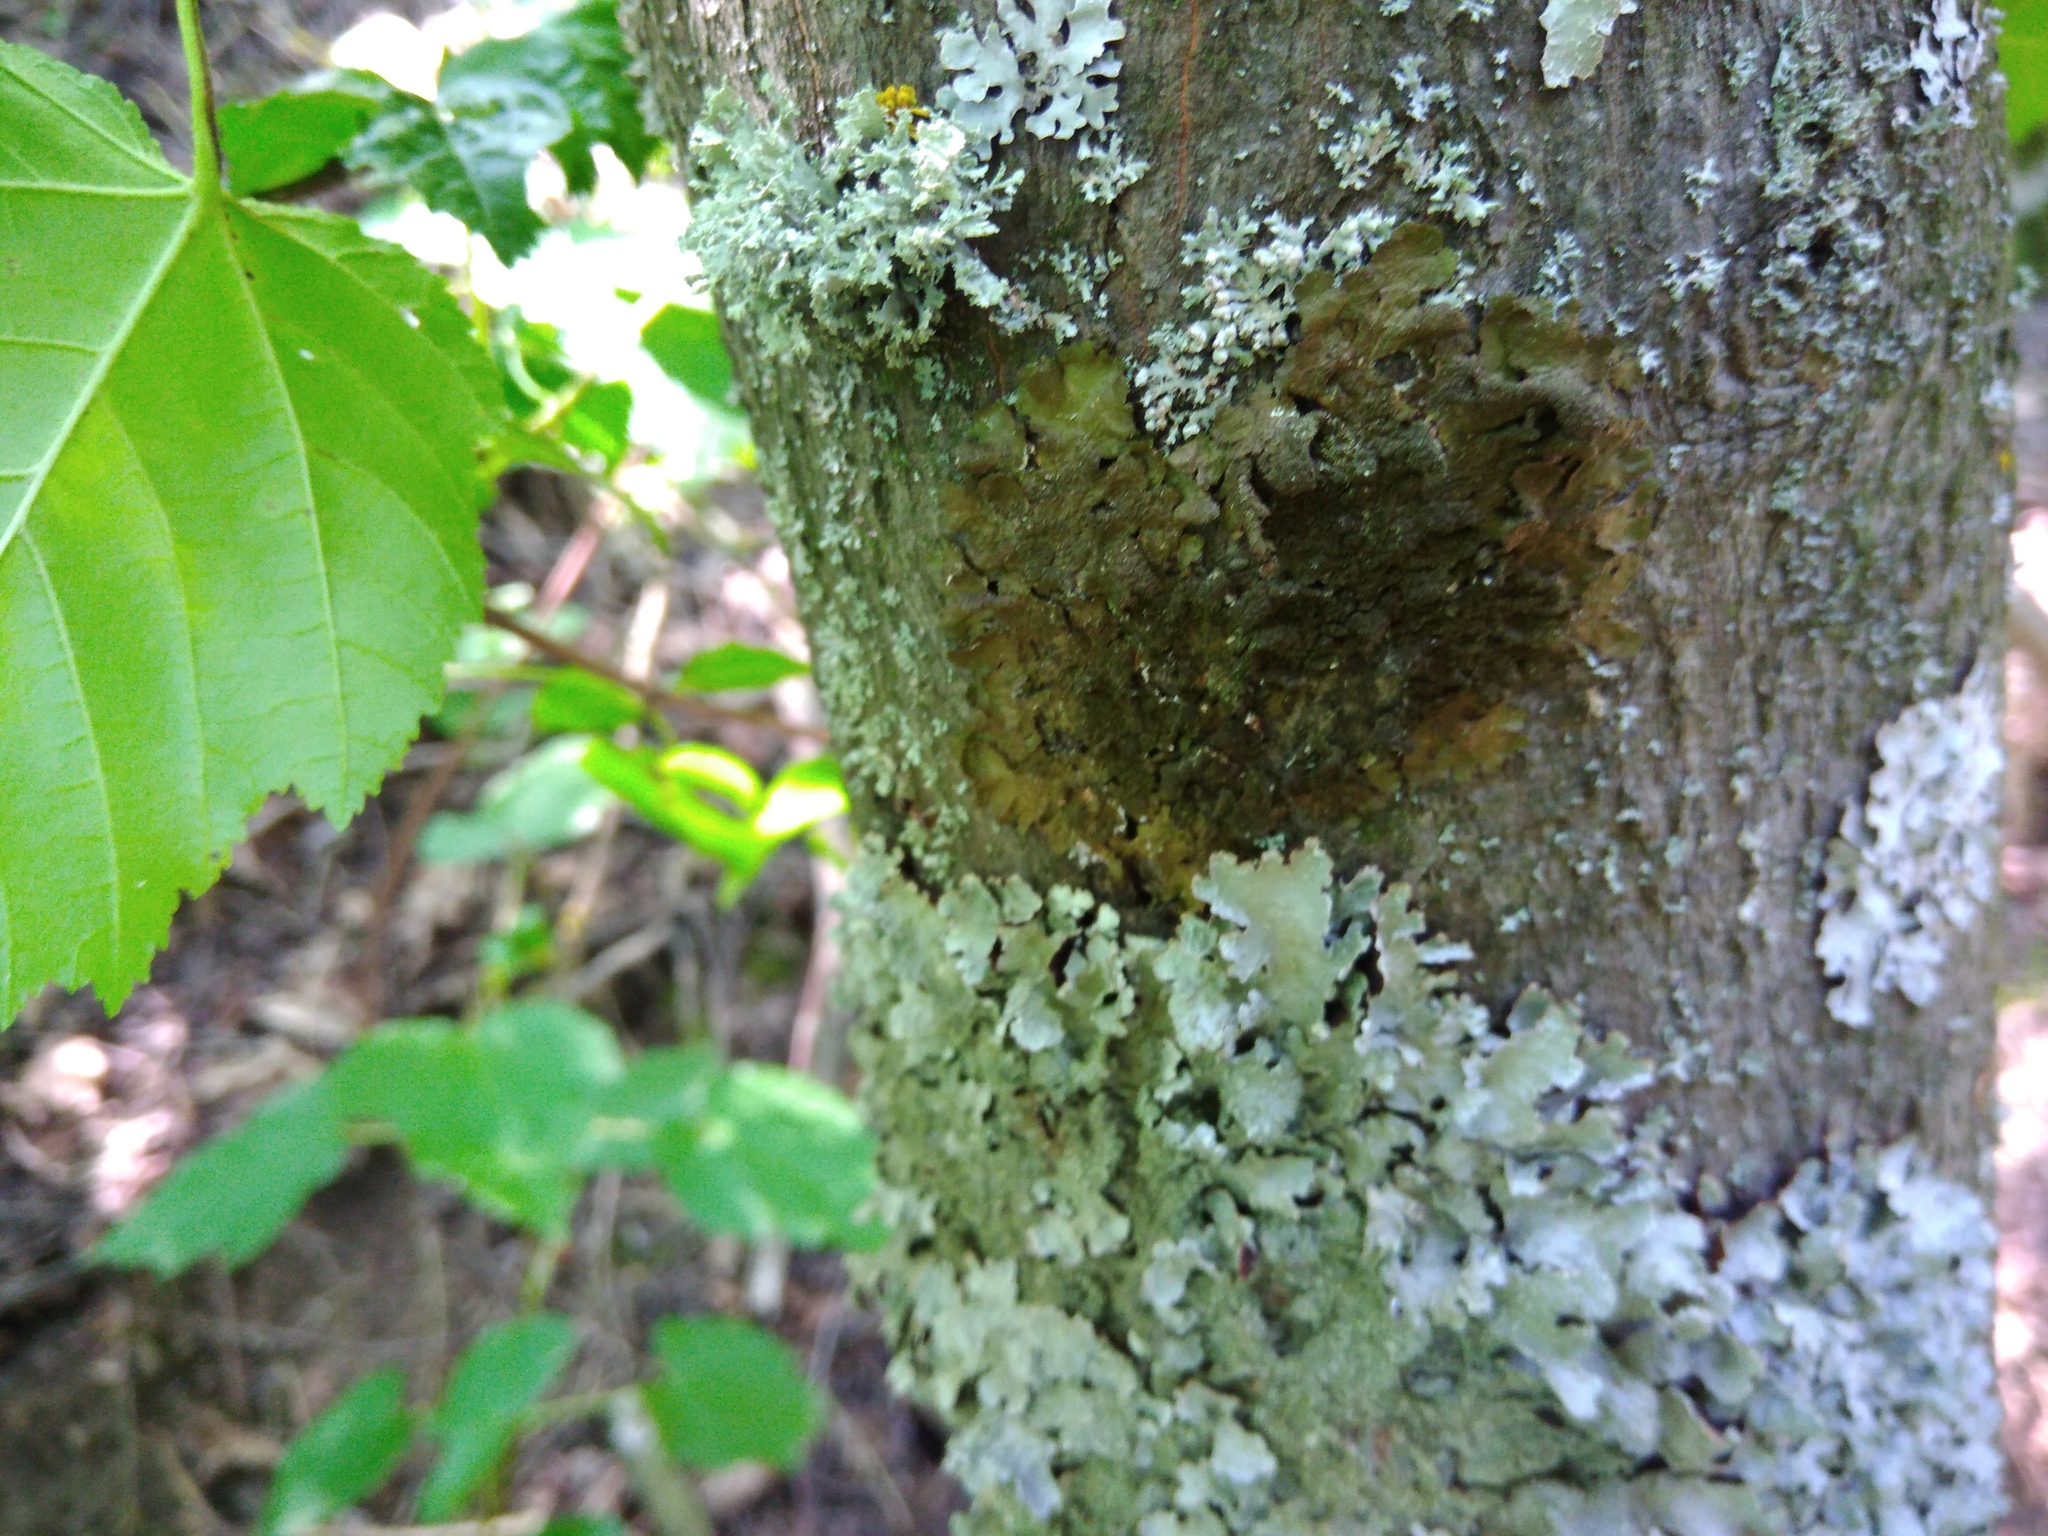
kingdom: Fungi
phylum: Ascomycota
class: Lecanoromycetes
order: Lecanorales
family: Parmeliaceae
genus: Melanelixia
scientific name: Melanelixia subaurifera
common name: Abraded camouflage lichen
